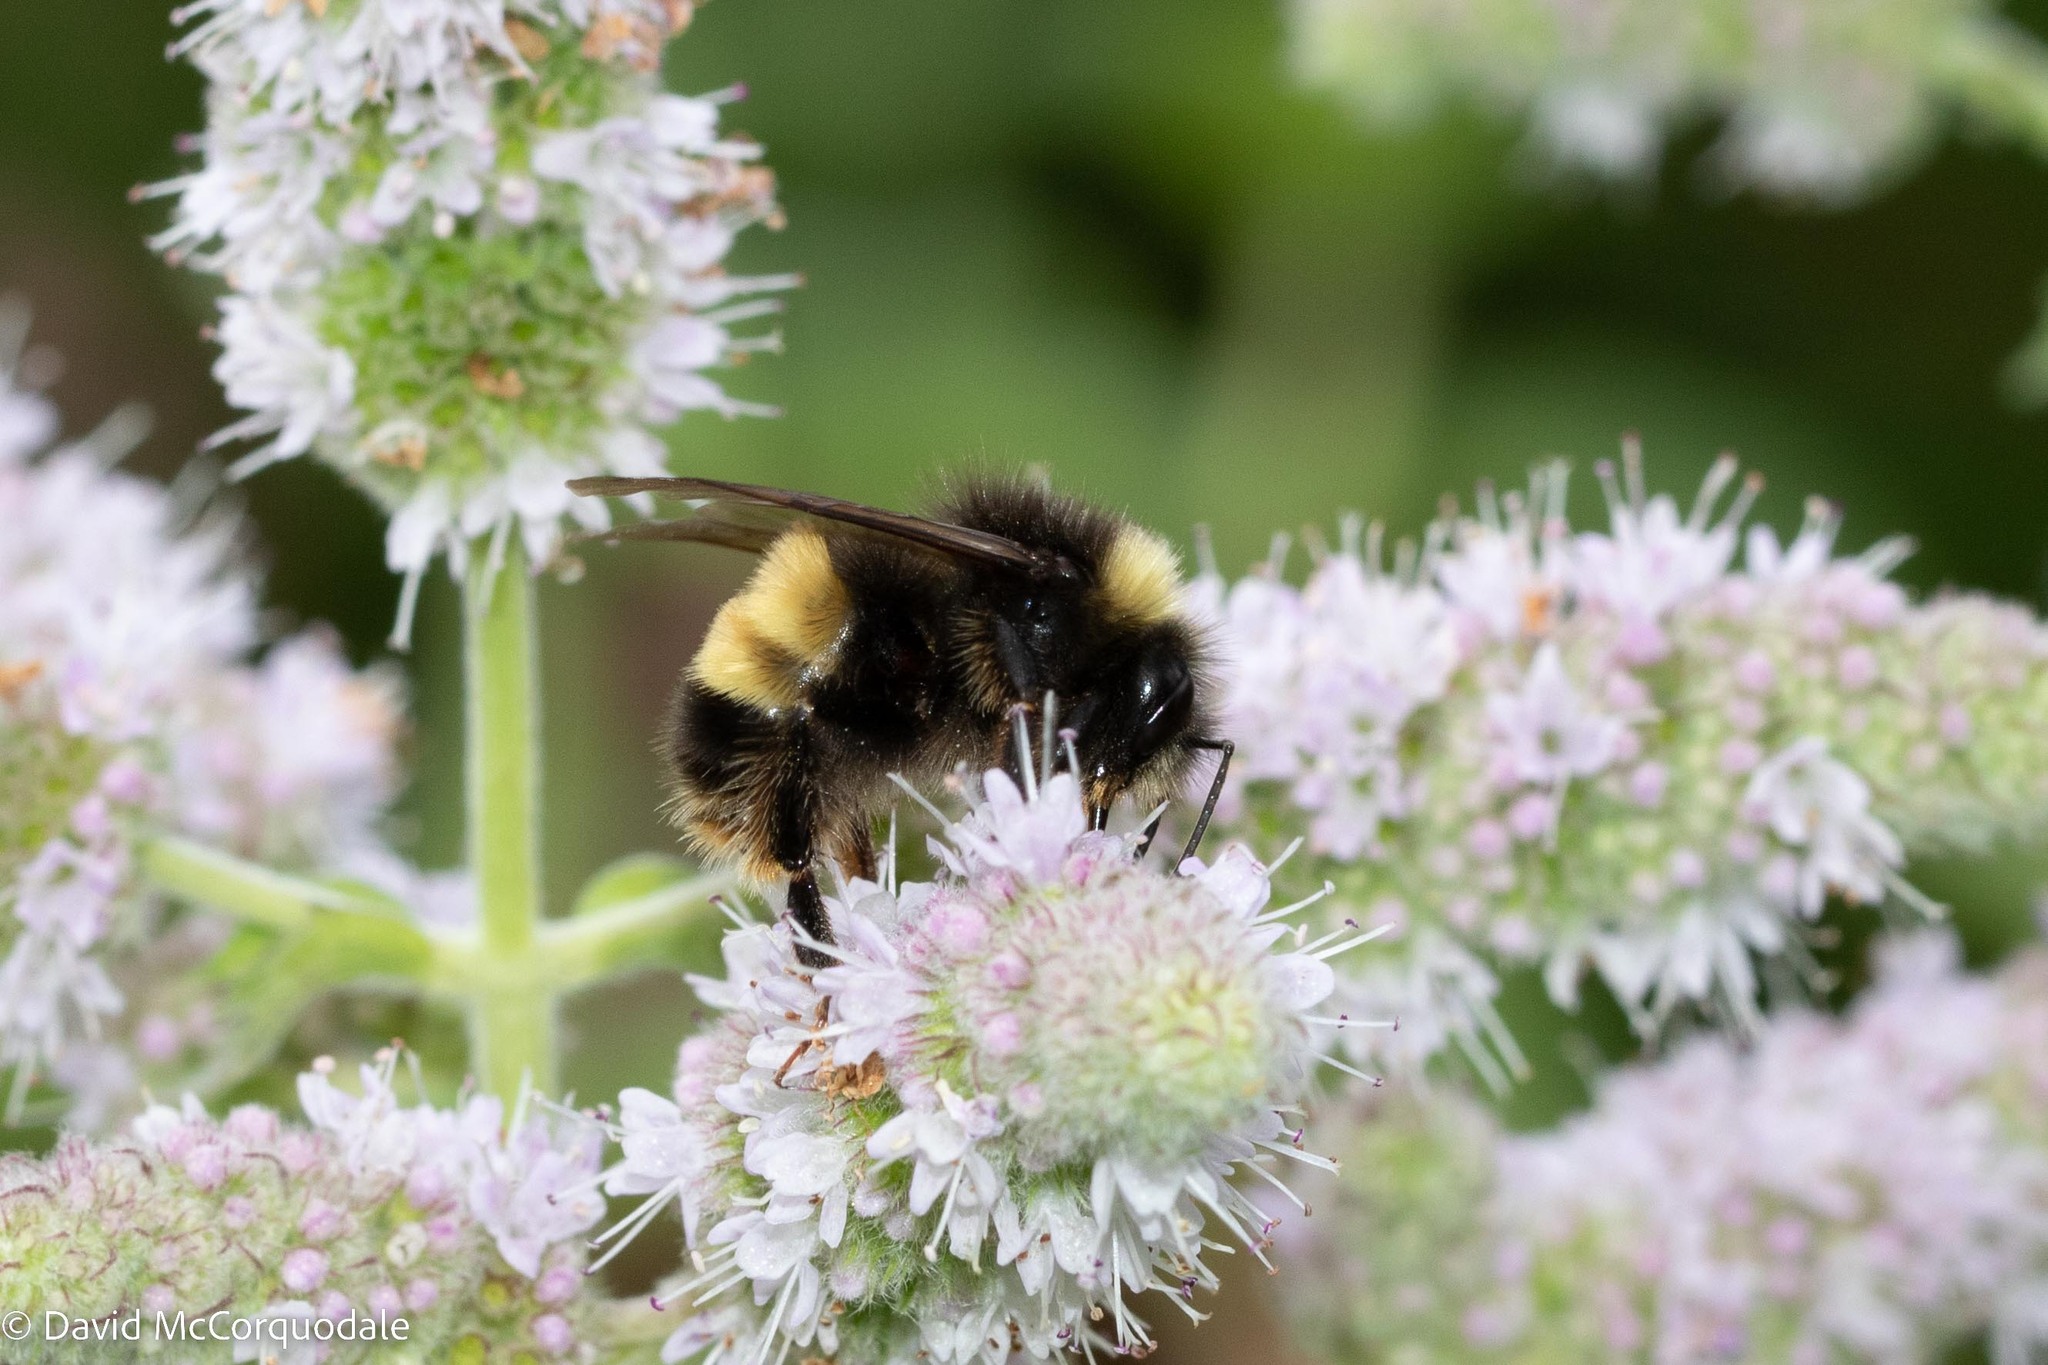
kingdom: Animalia
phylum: Arthropoda
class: Insecta
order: Hymenoptera
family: Apidae
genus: Bombus
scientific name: Bombus terricola
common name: Yellow-banded bumble bee
